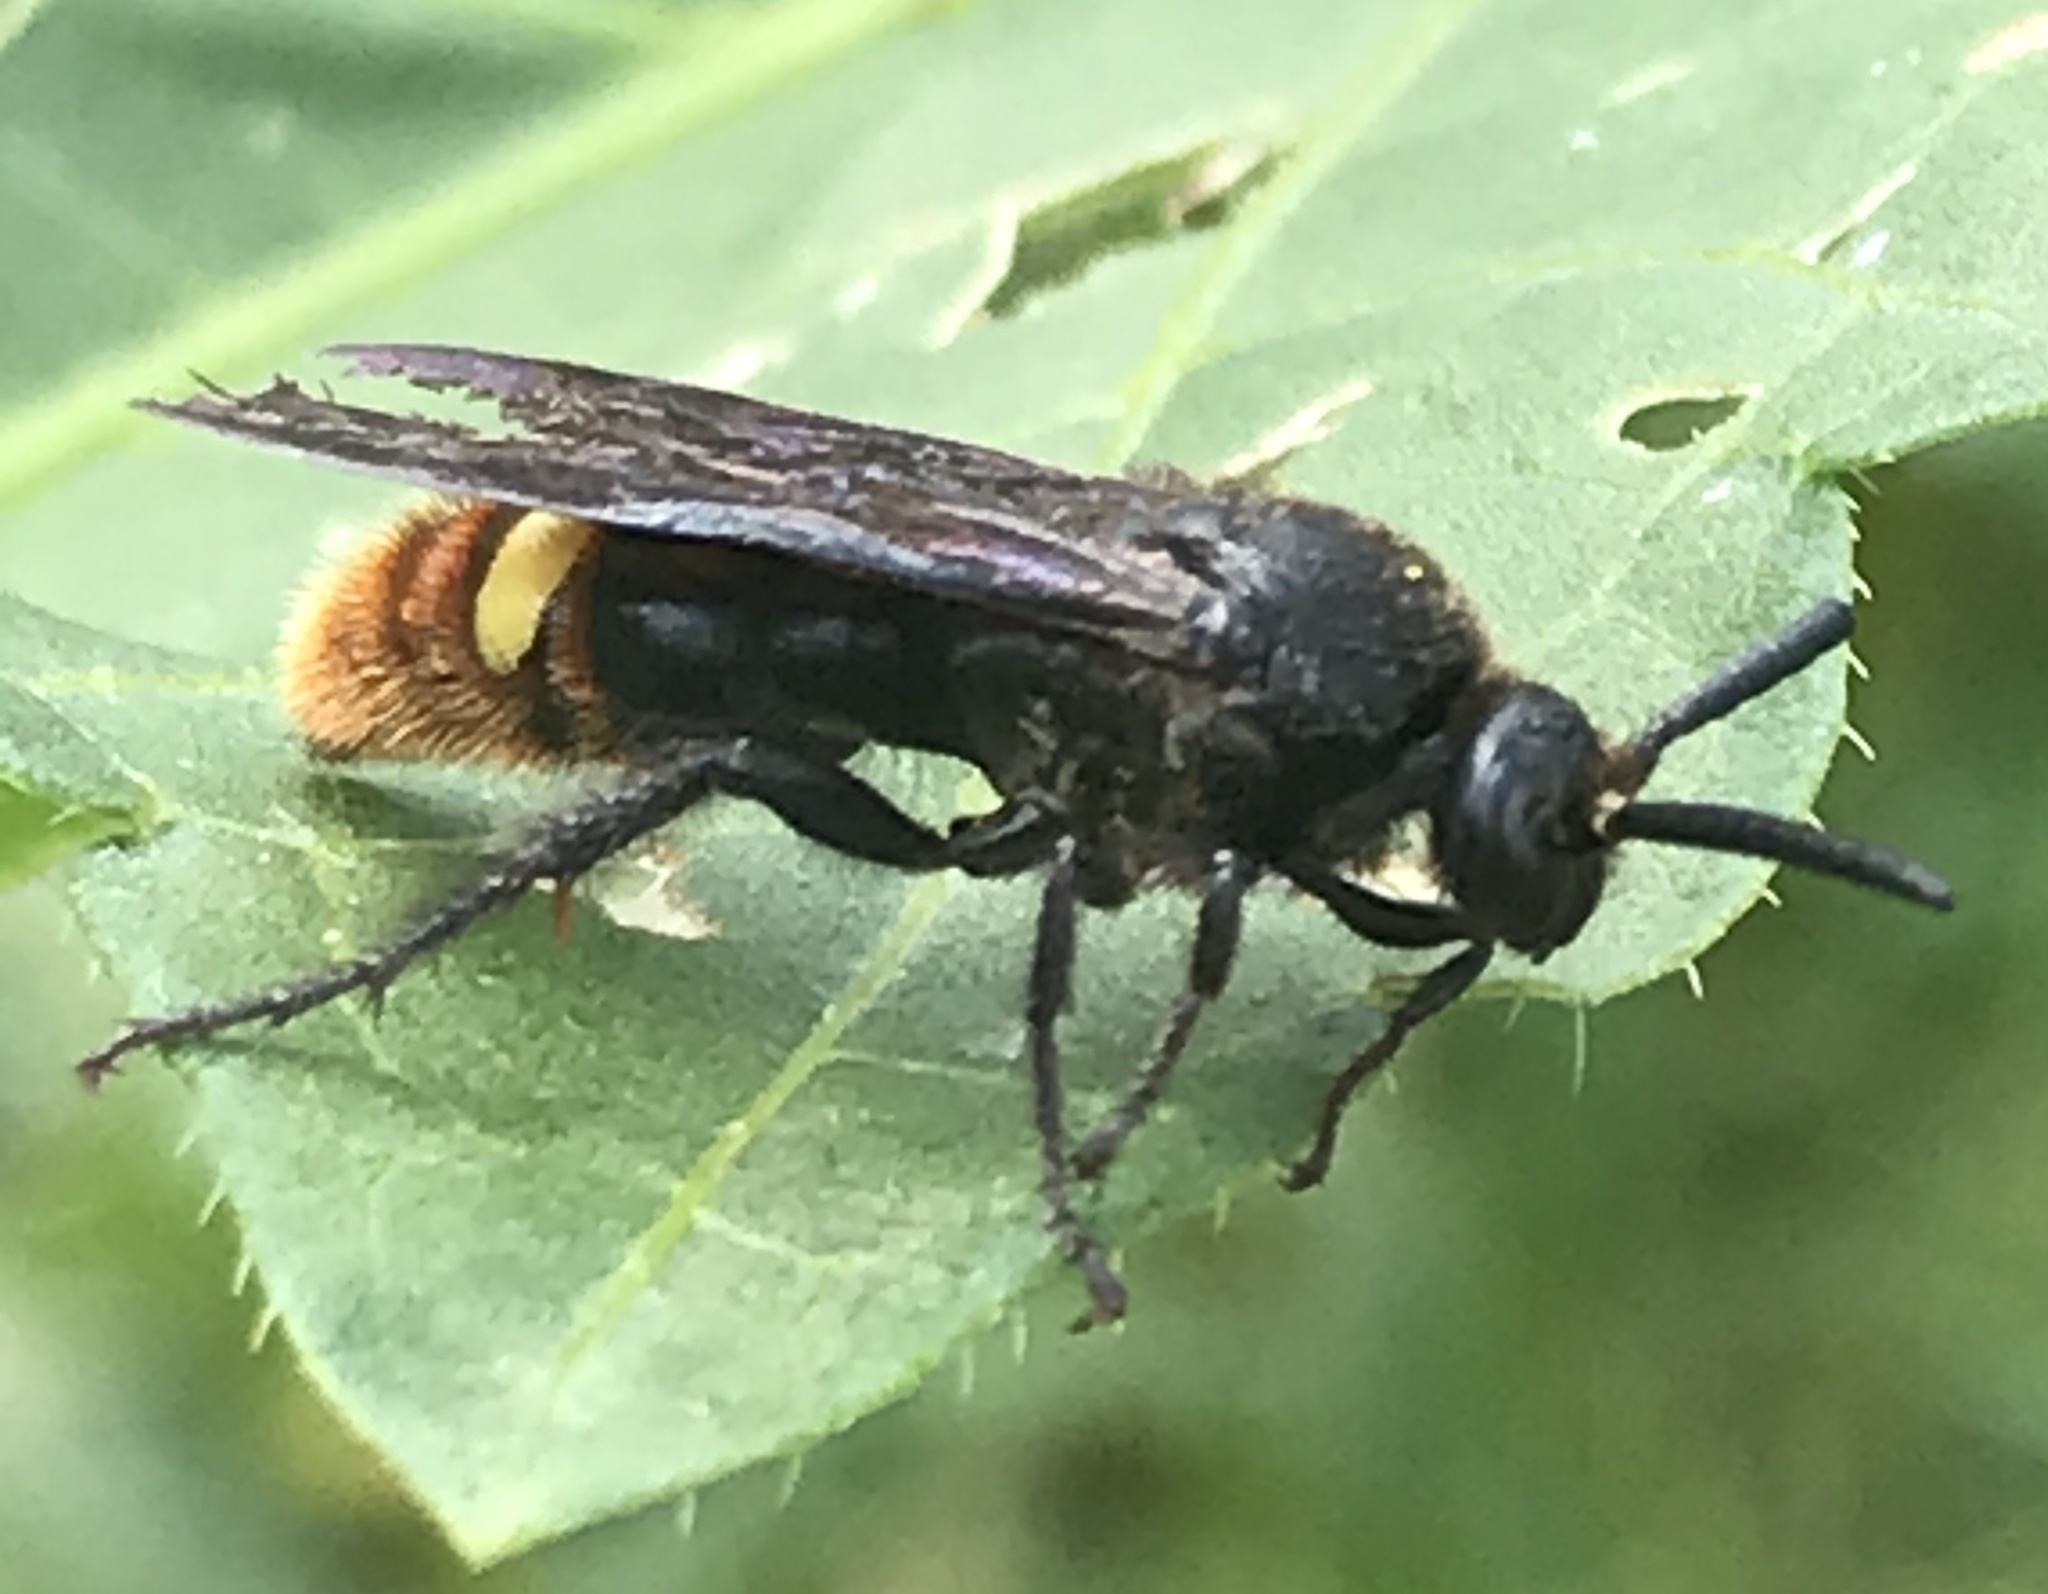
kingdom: Animalia
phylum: Arthropoda
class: Insecta
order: Hymenoptera
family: Scoliidae
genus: Scolia
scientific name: Scolia dubia
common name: Blue-winged scoliid wasp
